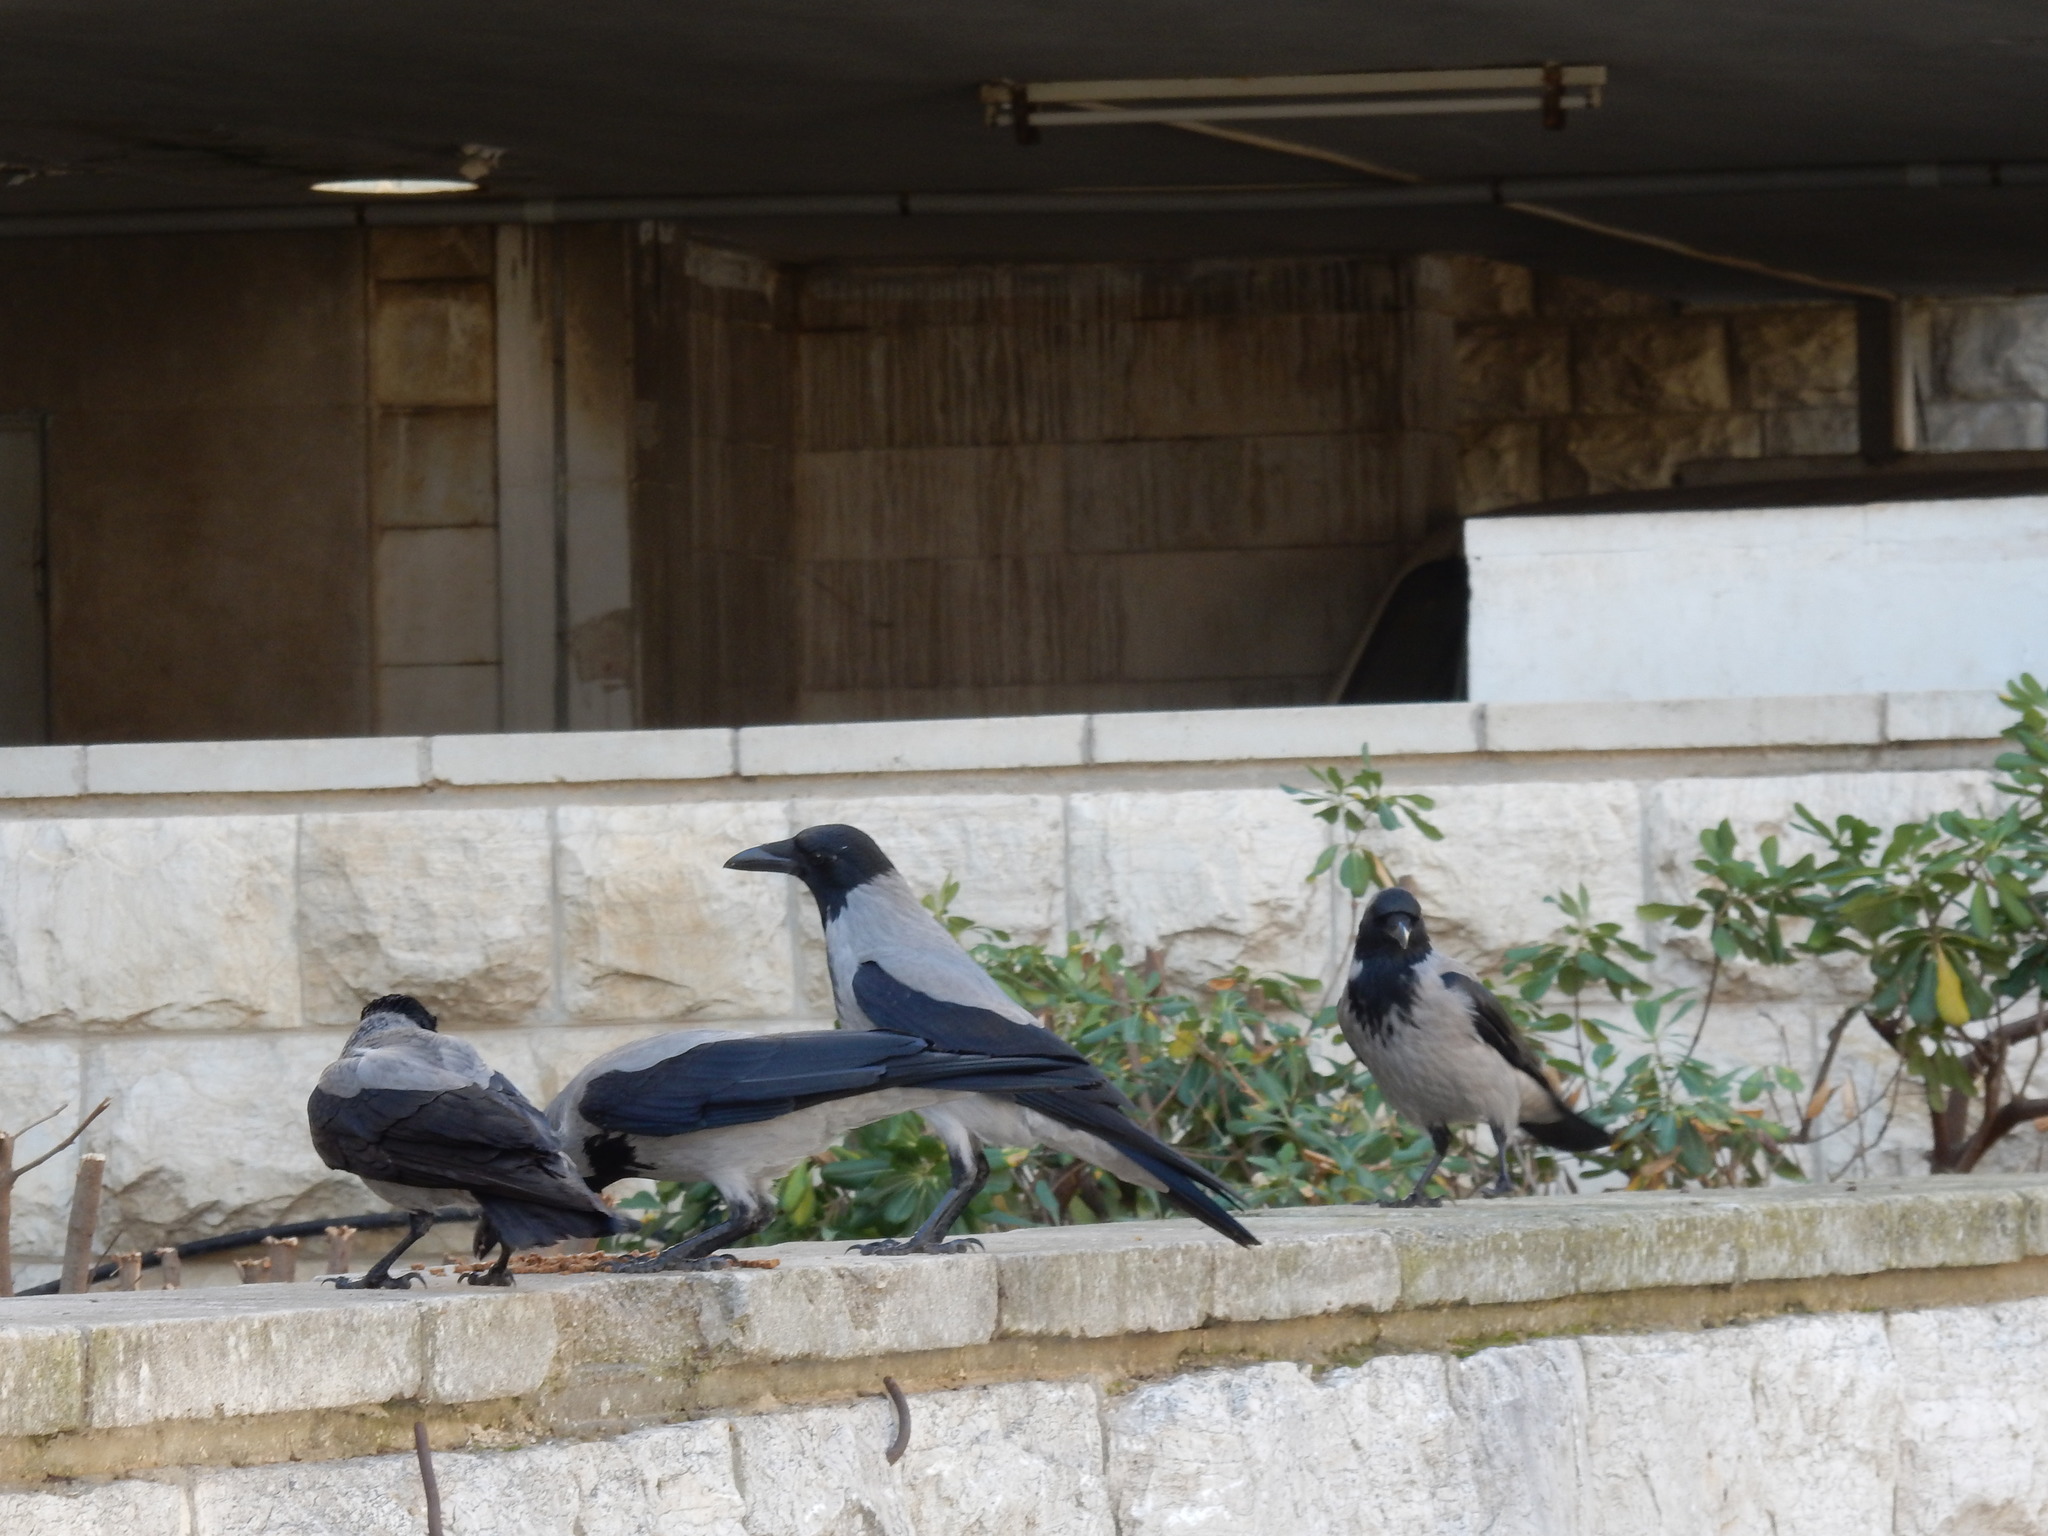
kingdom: Animalia
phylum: Chordata
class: Aves
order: Passeriformes
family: Corvidae
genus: Corvus
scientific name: Corvus cornix
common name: Hooded crow
